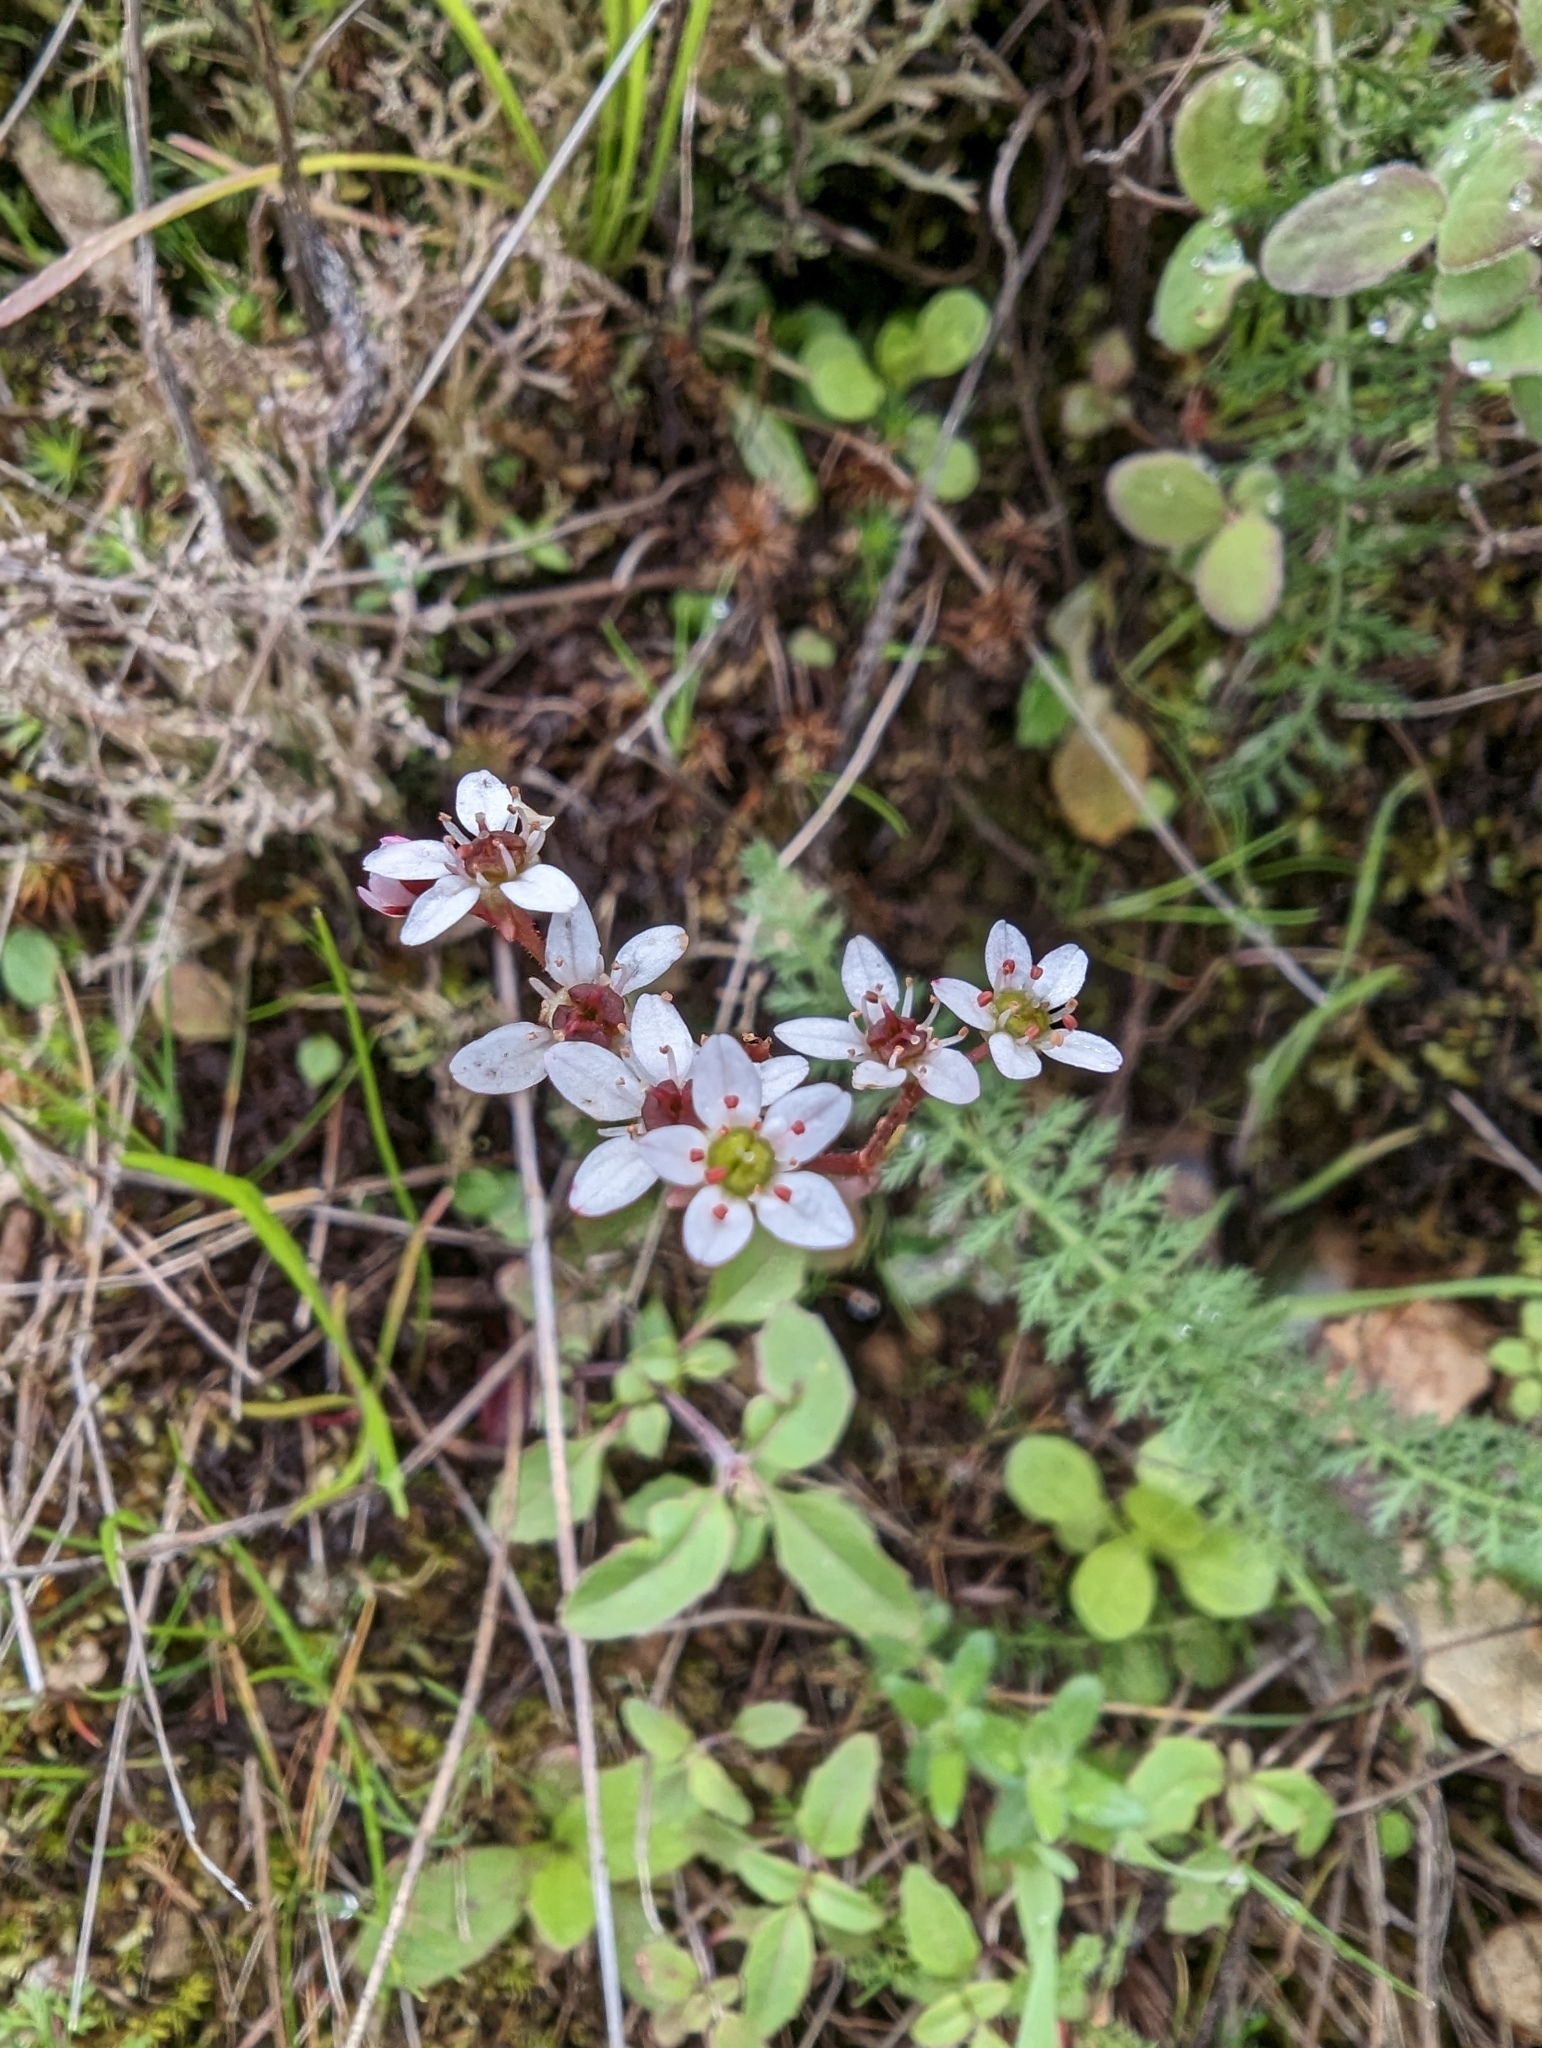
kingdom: Plantae
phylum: Tracheophyta
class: Magnoliopsida
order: Saxifragales
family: Saxifragaceae
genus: Micranthes
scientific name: Micranthes californica
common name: California saxifrage
